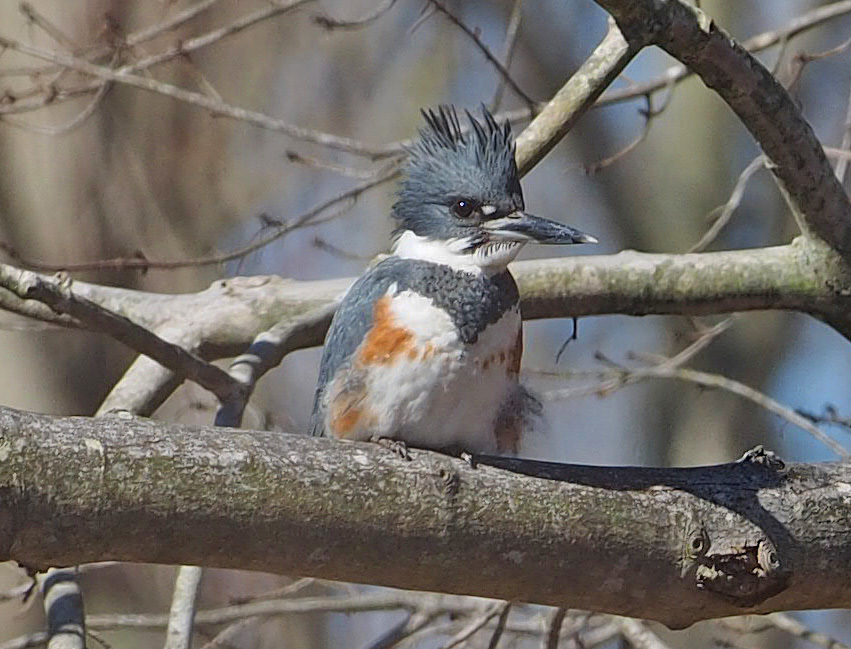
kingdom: Animalia
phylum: Chordata
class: Aves
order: Coraciiformes
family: Alcedinidae
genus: Megaceryle
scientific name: Megaceryle alcyon
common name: Belted kingfisher
